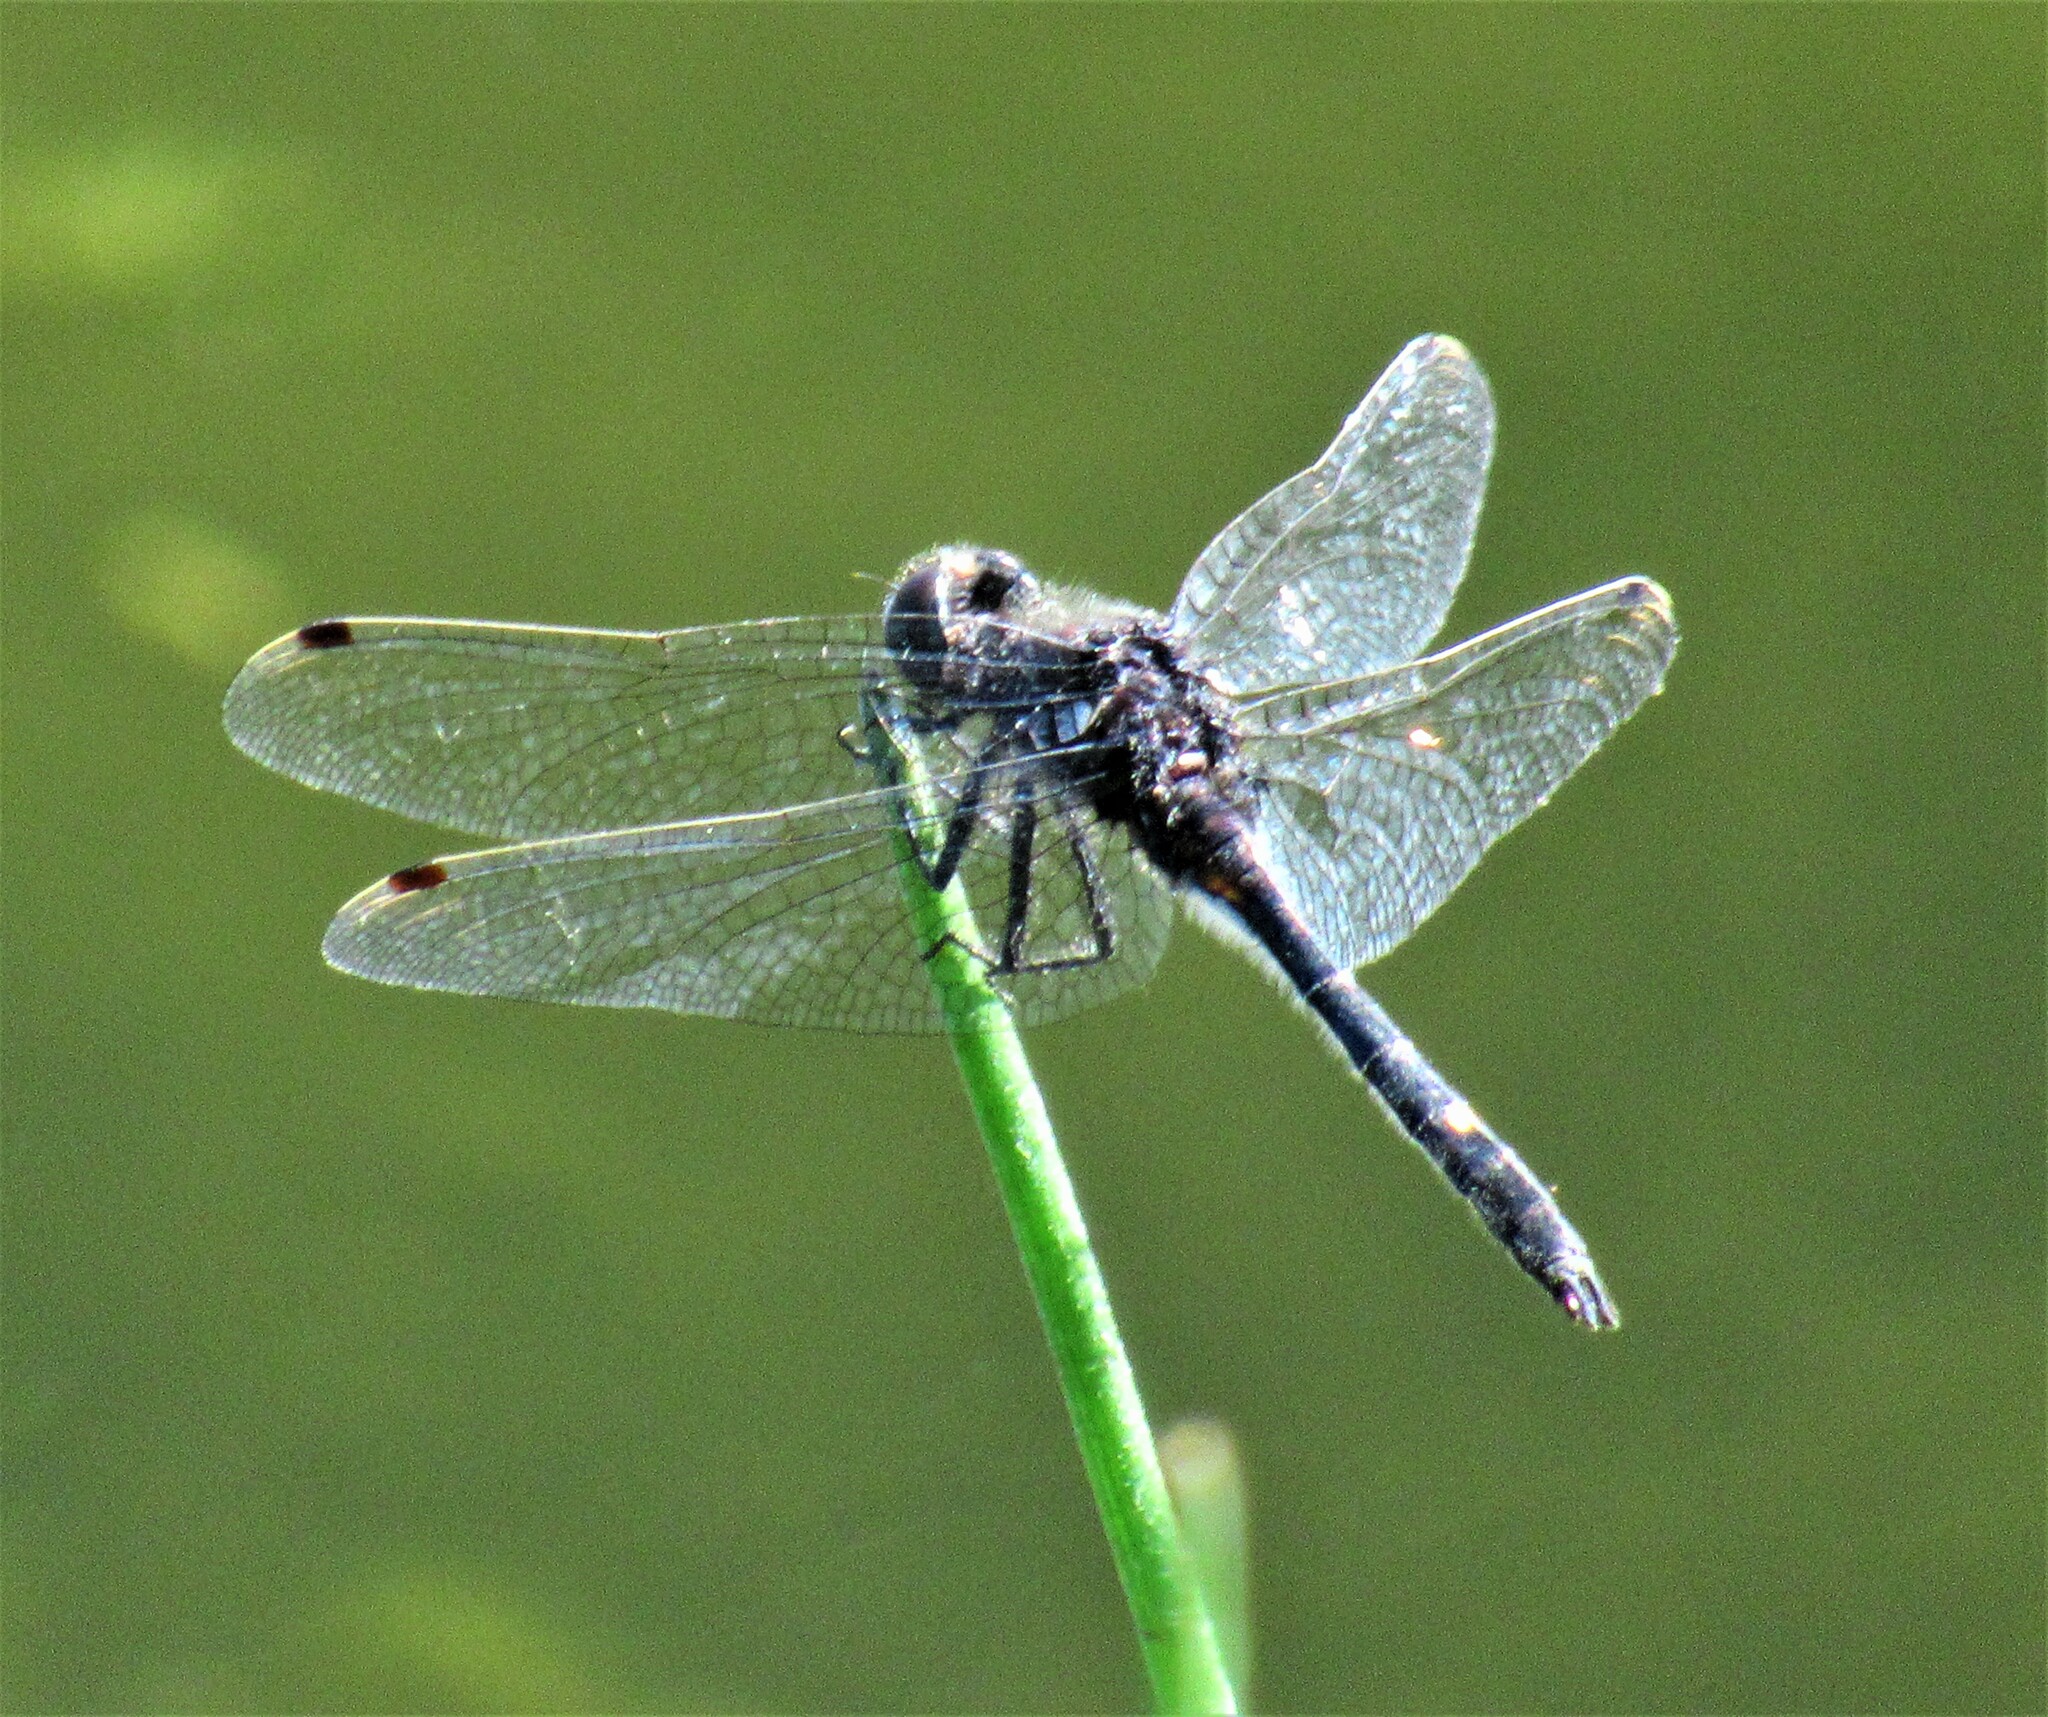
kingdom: Animalia
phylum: Arthropoda
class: Insecta
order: Odonata
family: Libellulidae
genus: Leucorrhinia
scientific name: Leucorrhinia intacta
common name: Dot-tailed whiteface
